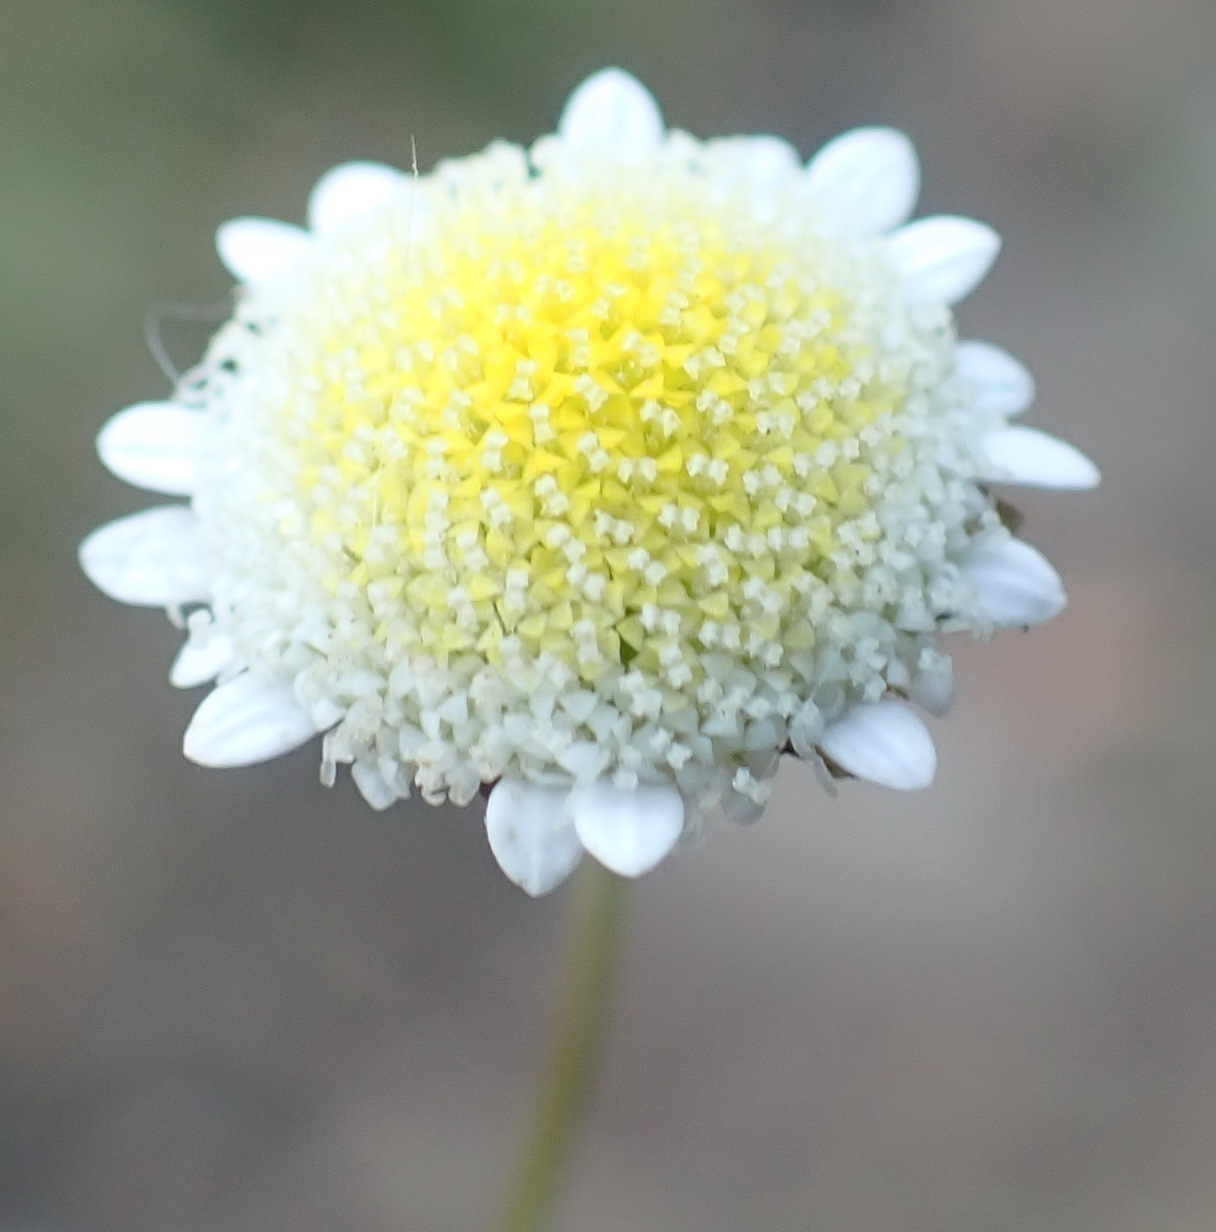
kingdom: Plantae
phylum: Tracheophyta
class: Magnoliopsida
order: Asterales
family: Asteraceae
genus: Cotula
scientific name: Cotula turbinata
